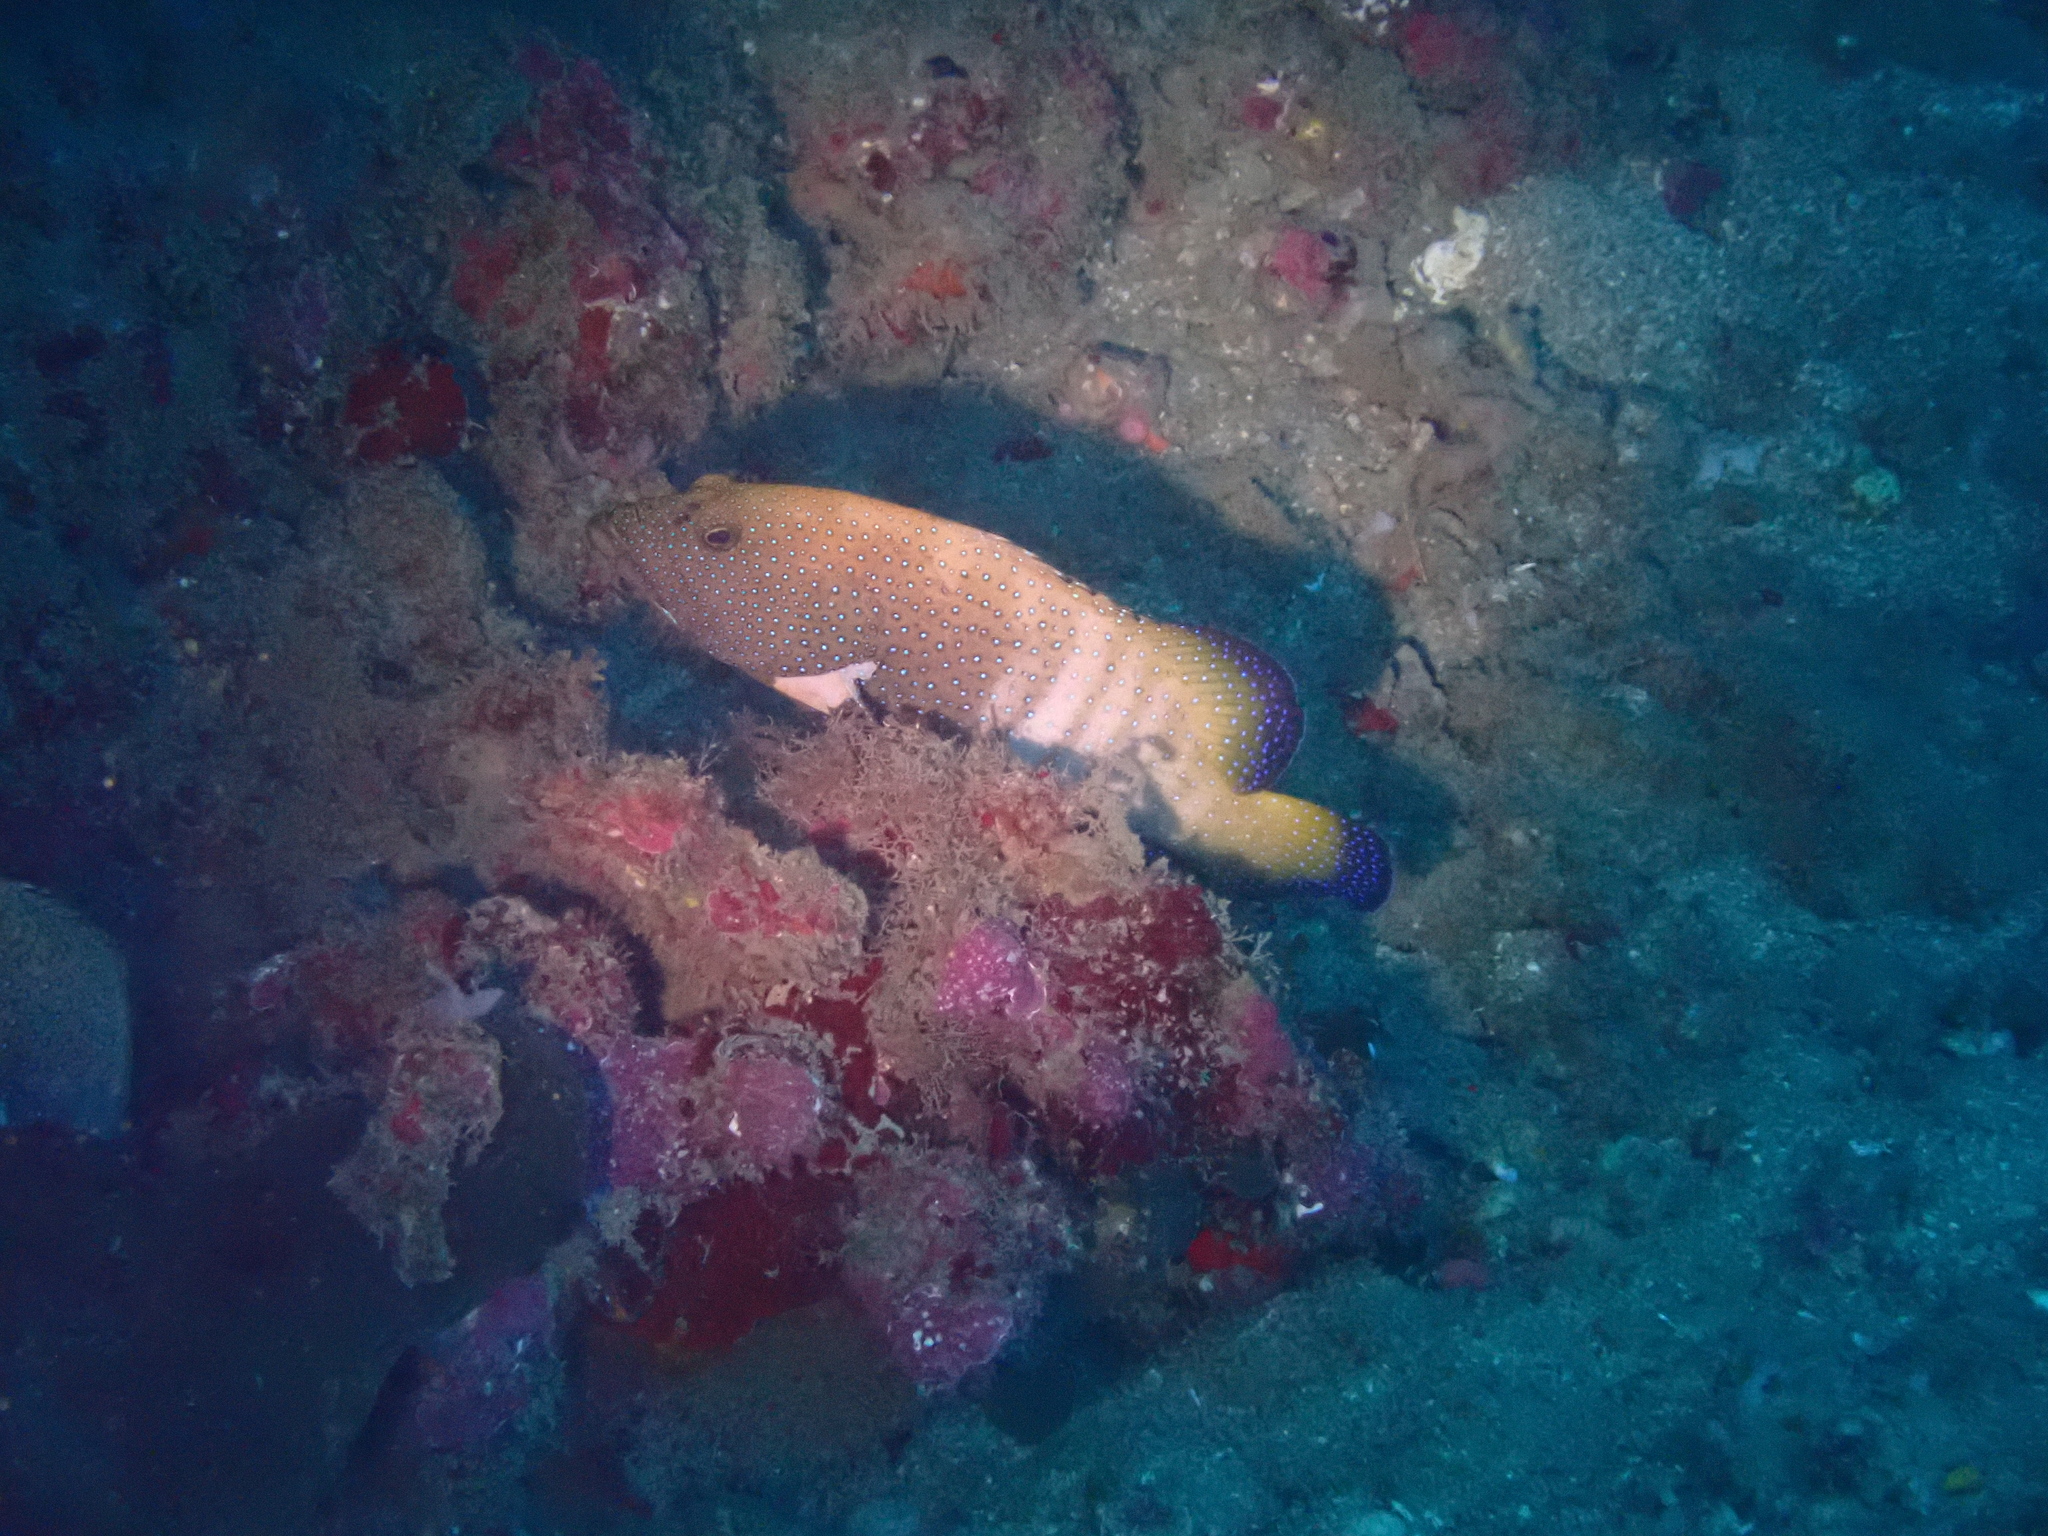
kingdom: Animalia
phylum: Chordata
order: Perciformes
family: Serranidae
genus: Cephalopholis
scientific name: Cephalopholis argus
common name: Peacock grouper
